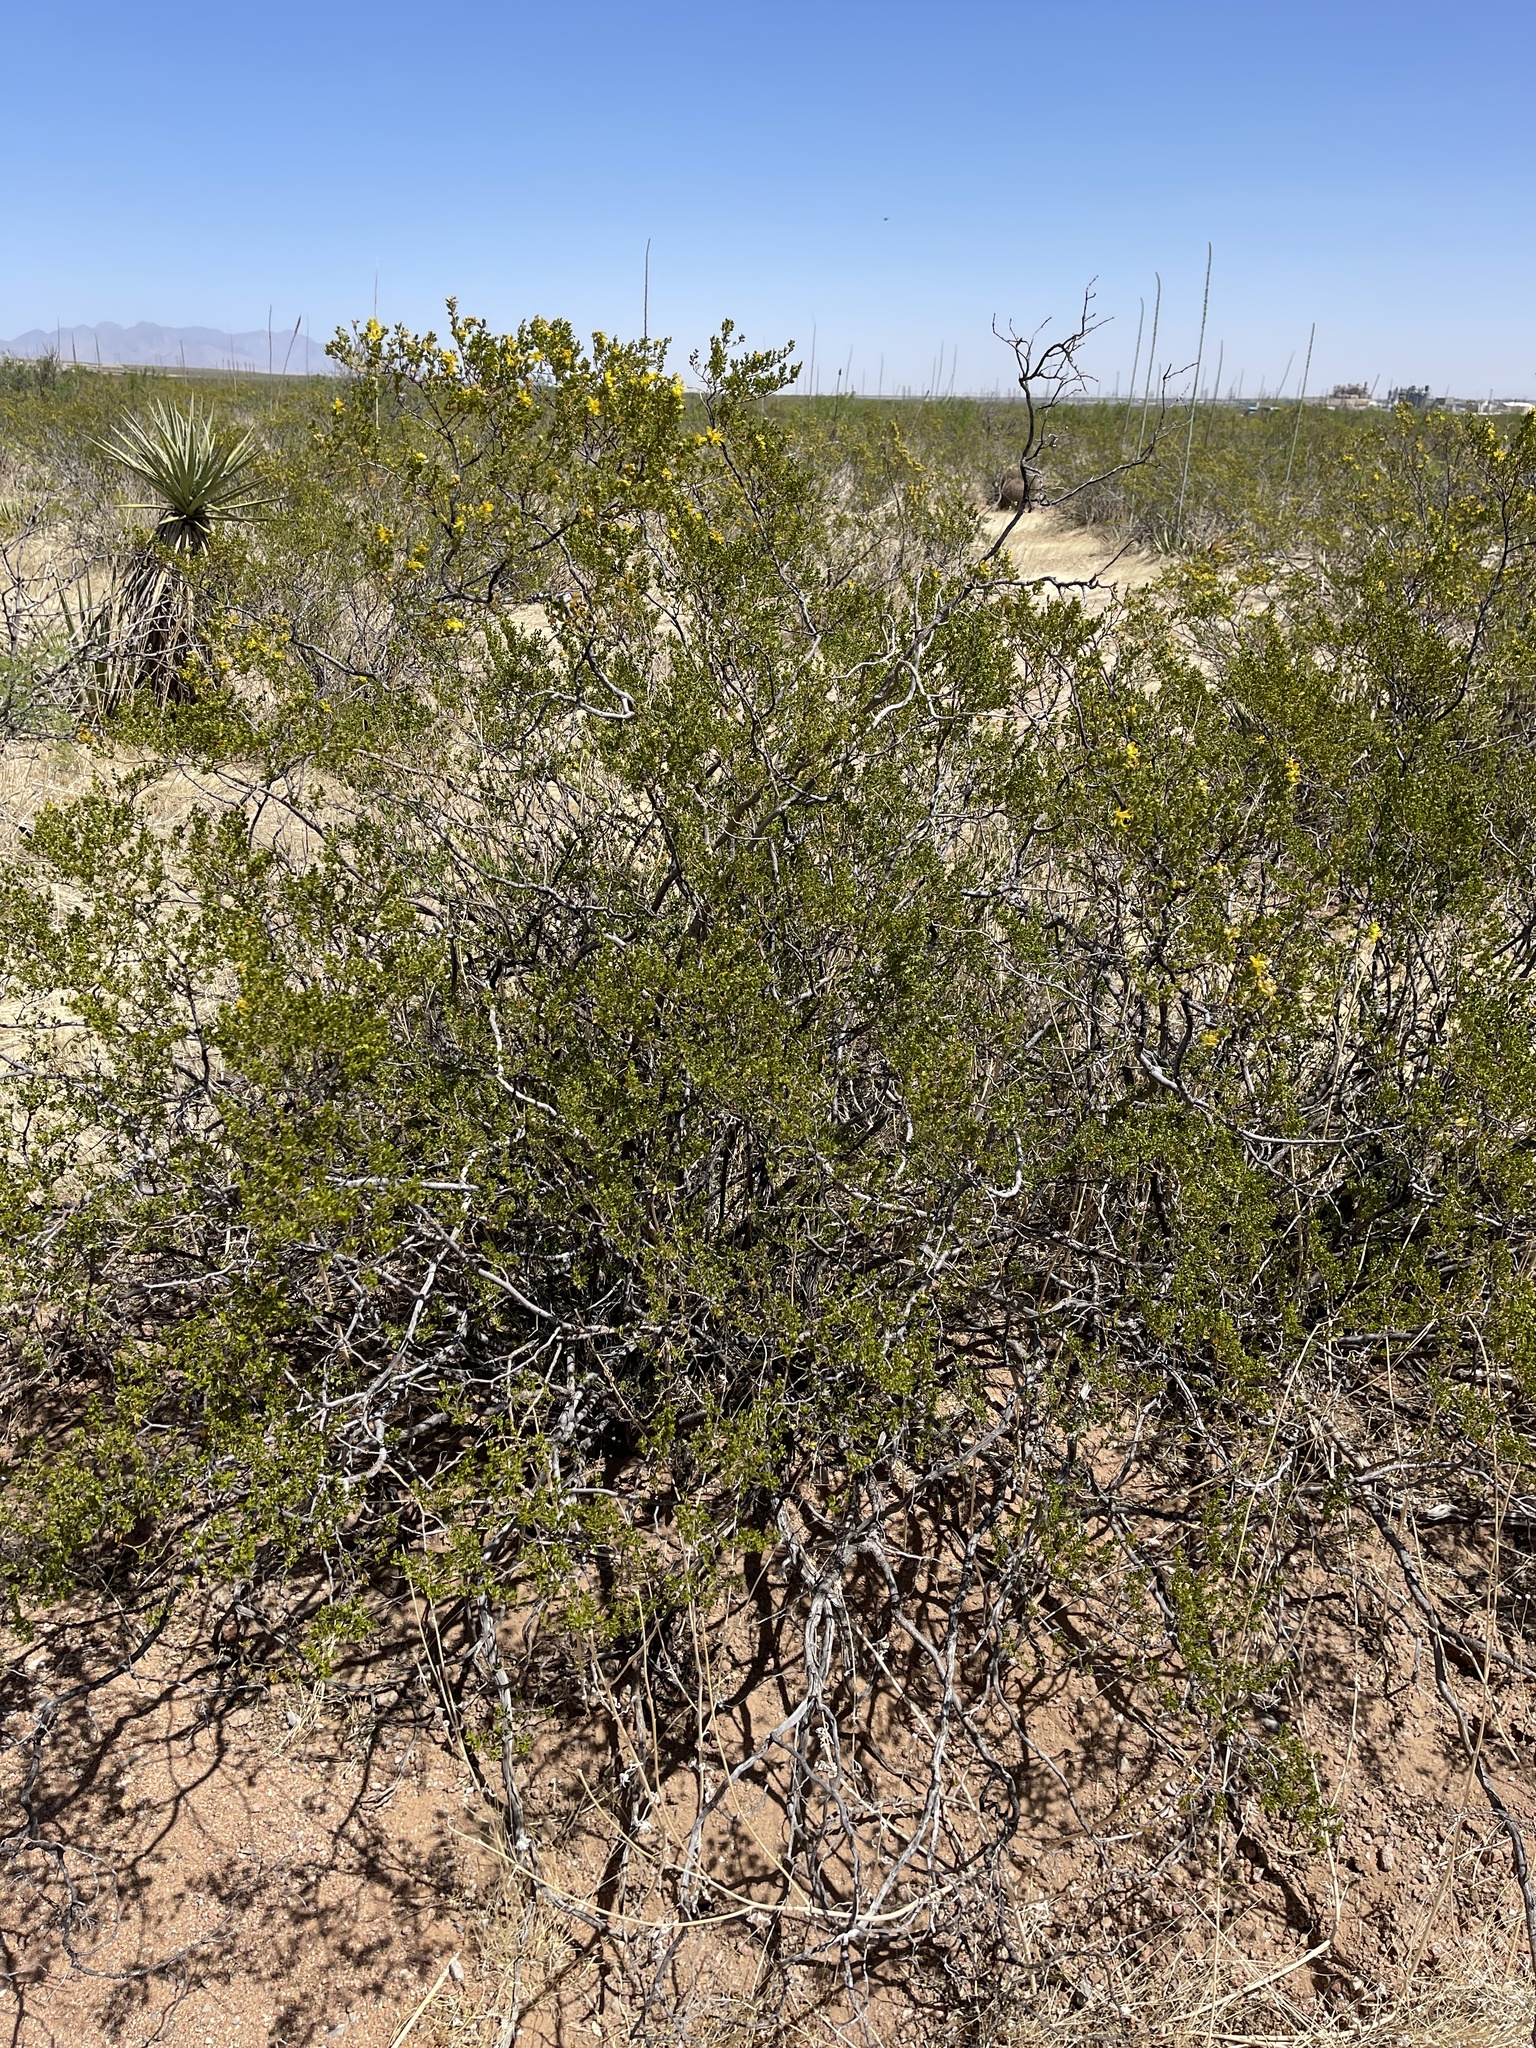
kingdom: Plantae
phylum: Tracheophyta
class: Magnoliopsida
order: Zygophyllales
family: Zygophyllaceae
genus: Larrea
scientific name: Larrea tridentata
